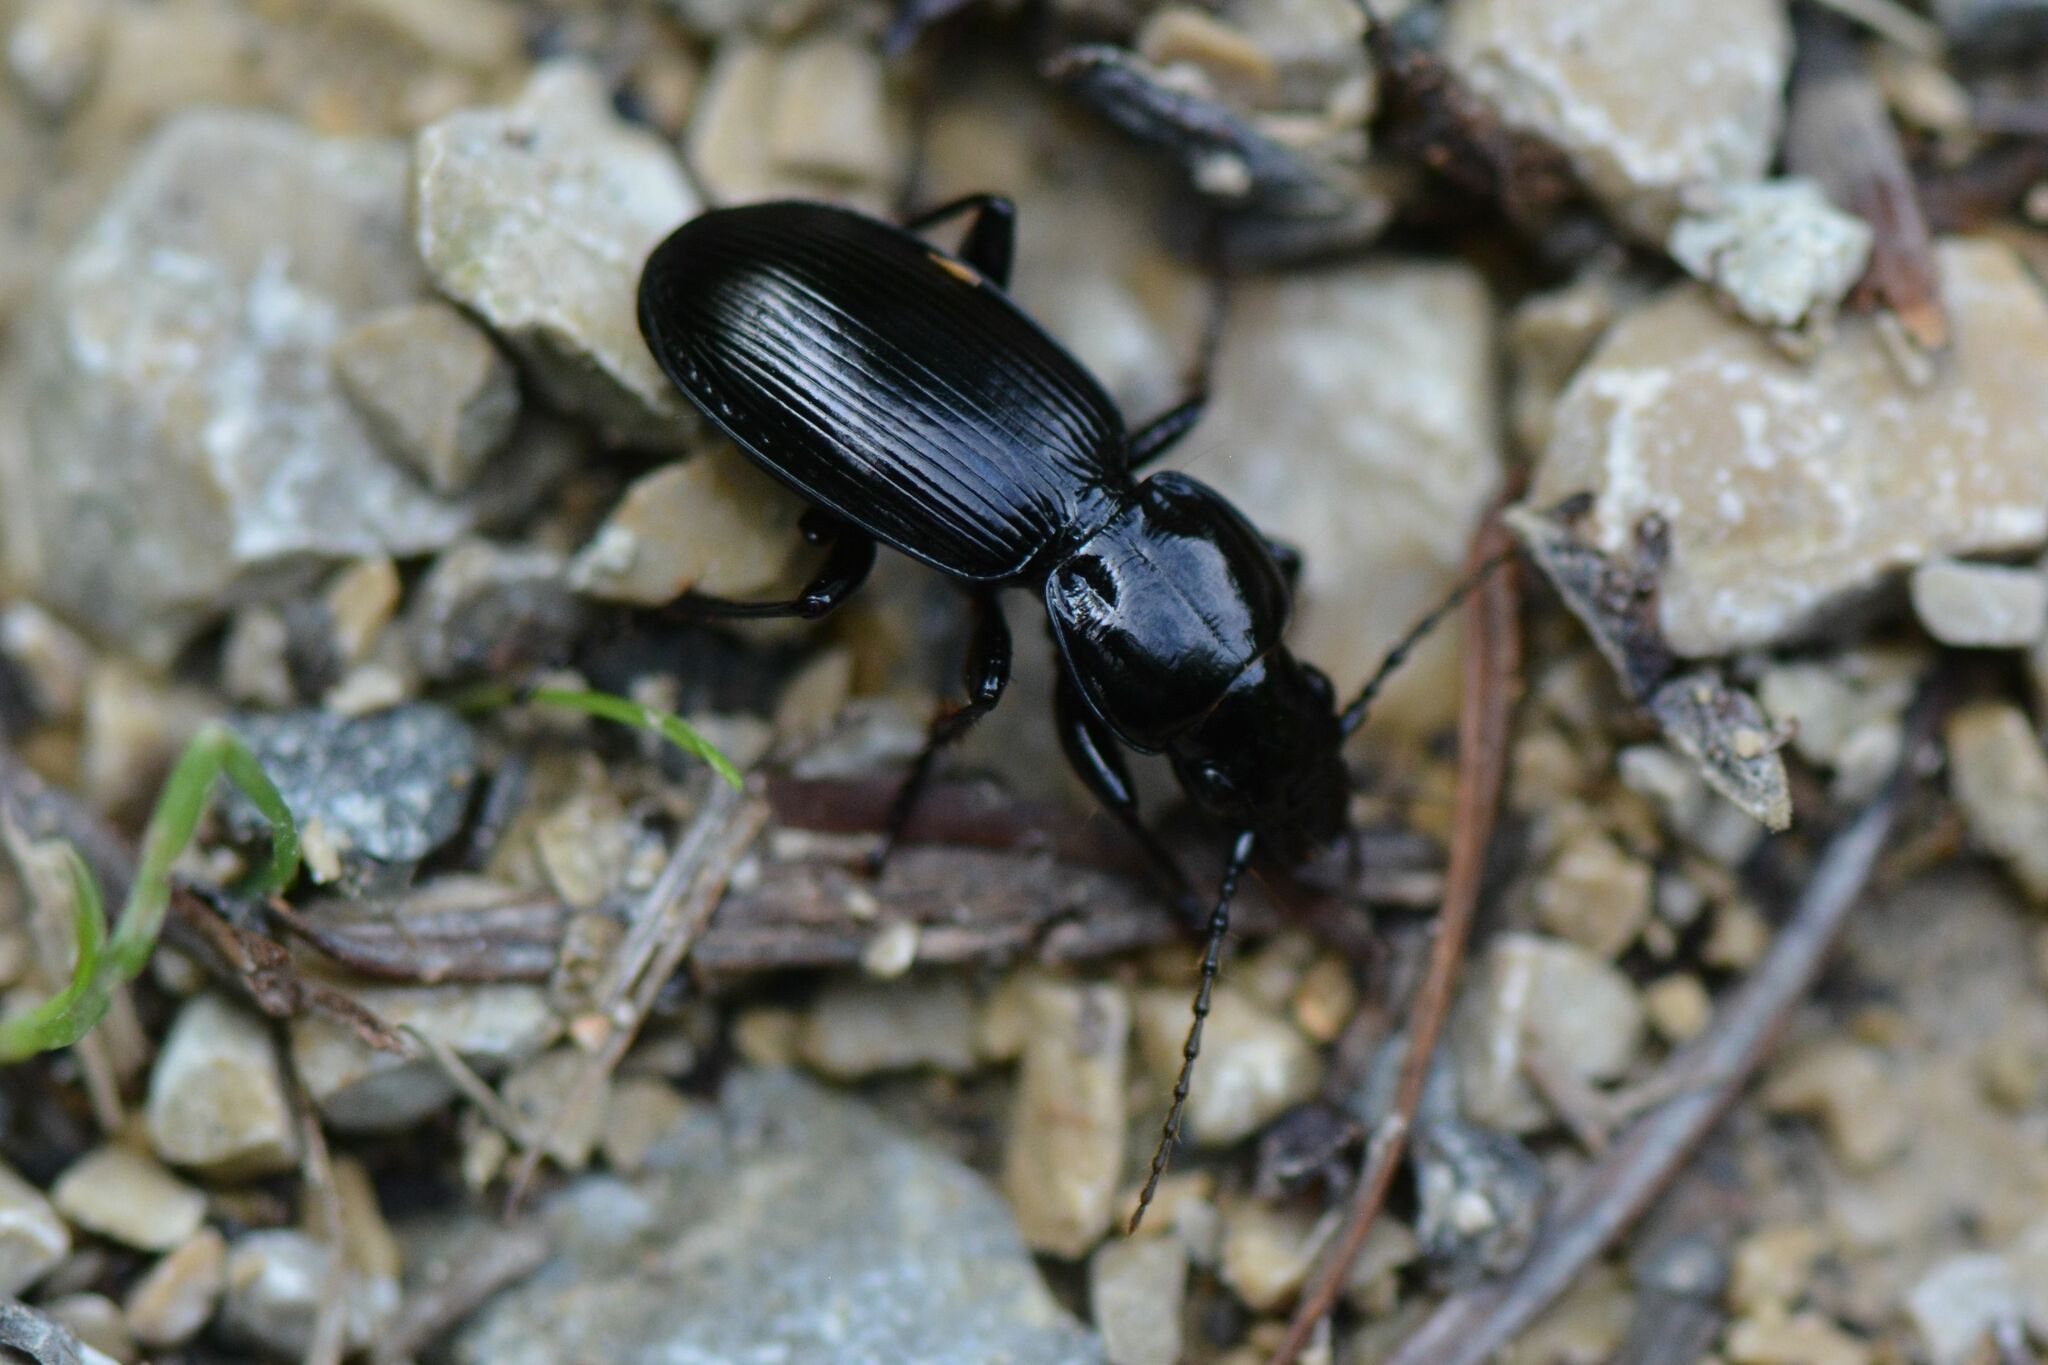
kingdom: Animalia
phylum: Arthropoda
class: Insecta
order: Coleoptera
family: Carabidae
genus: Pterostichus
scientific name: Pterostichus madidus
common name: Black clock
